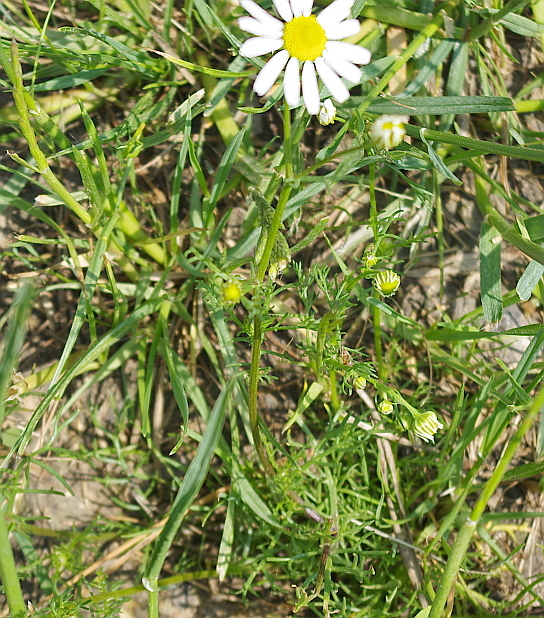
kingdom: Plantae
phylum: Tracheophyta
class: Magnoliopsida
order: Asterales
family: Asteraceae
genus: Tripleurospermum
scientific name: Tripleurospermum inodorum
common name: Scentless mayweed
